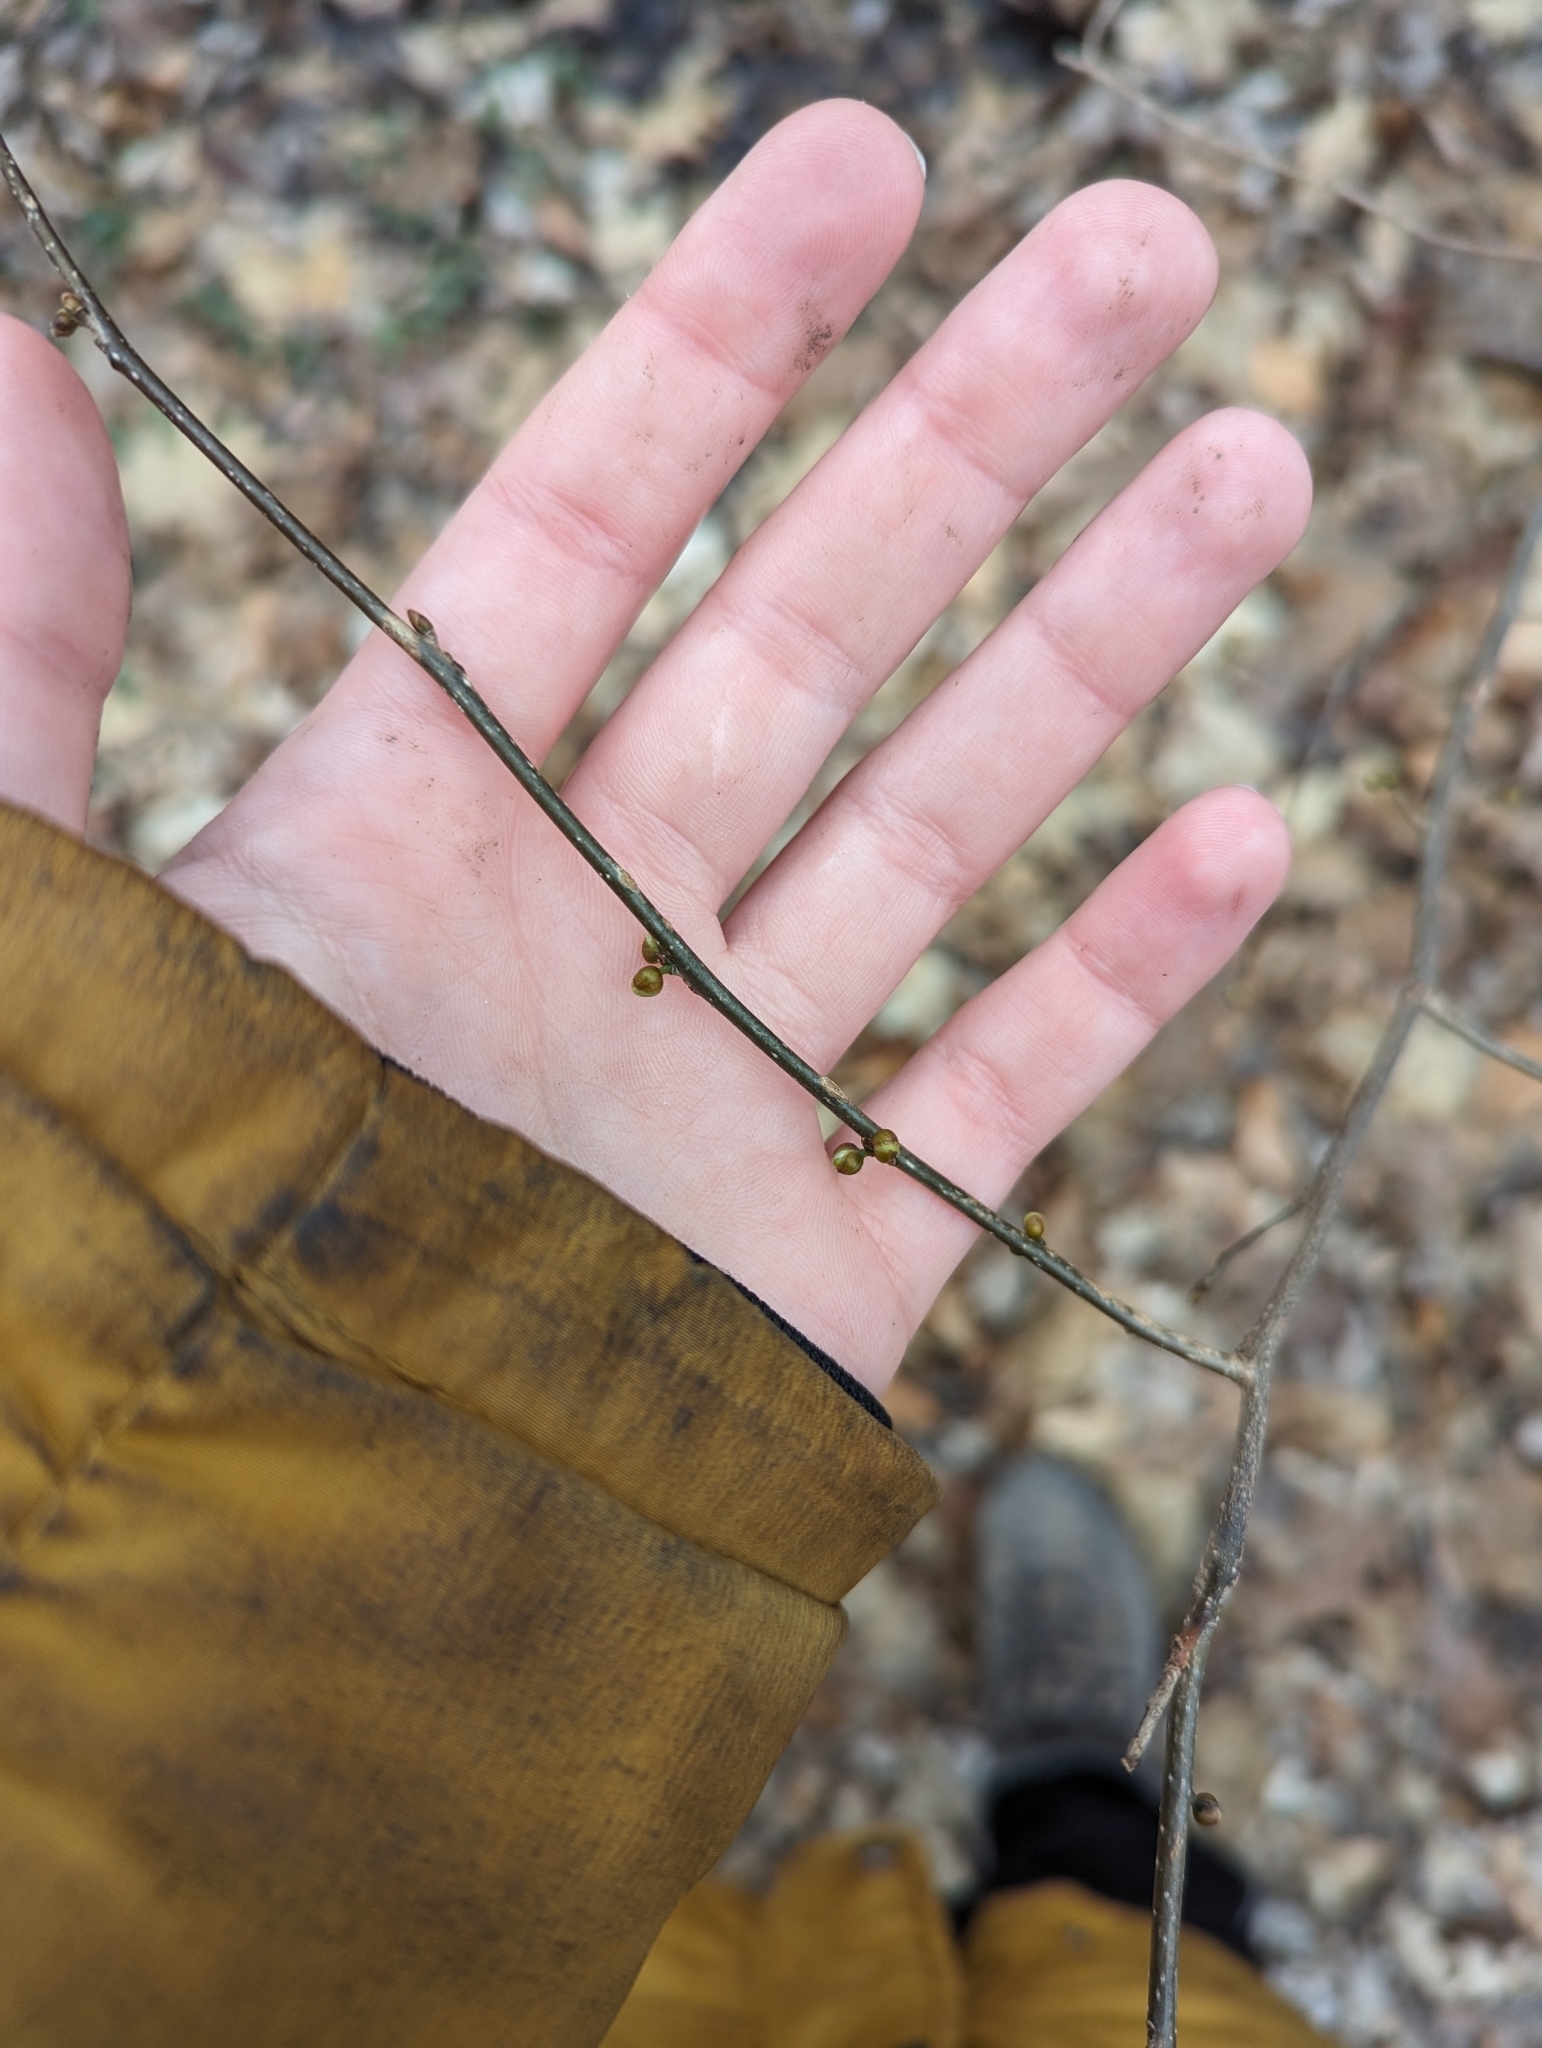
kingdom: Plantae
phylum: Tracheophyta
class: Magnoliopsida
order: Laurales
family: Lauraceae
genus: Lindera
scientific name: Lindera benzoin
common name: Spicebush
